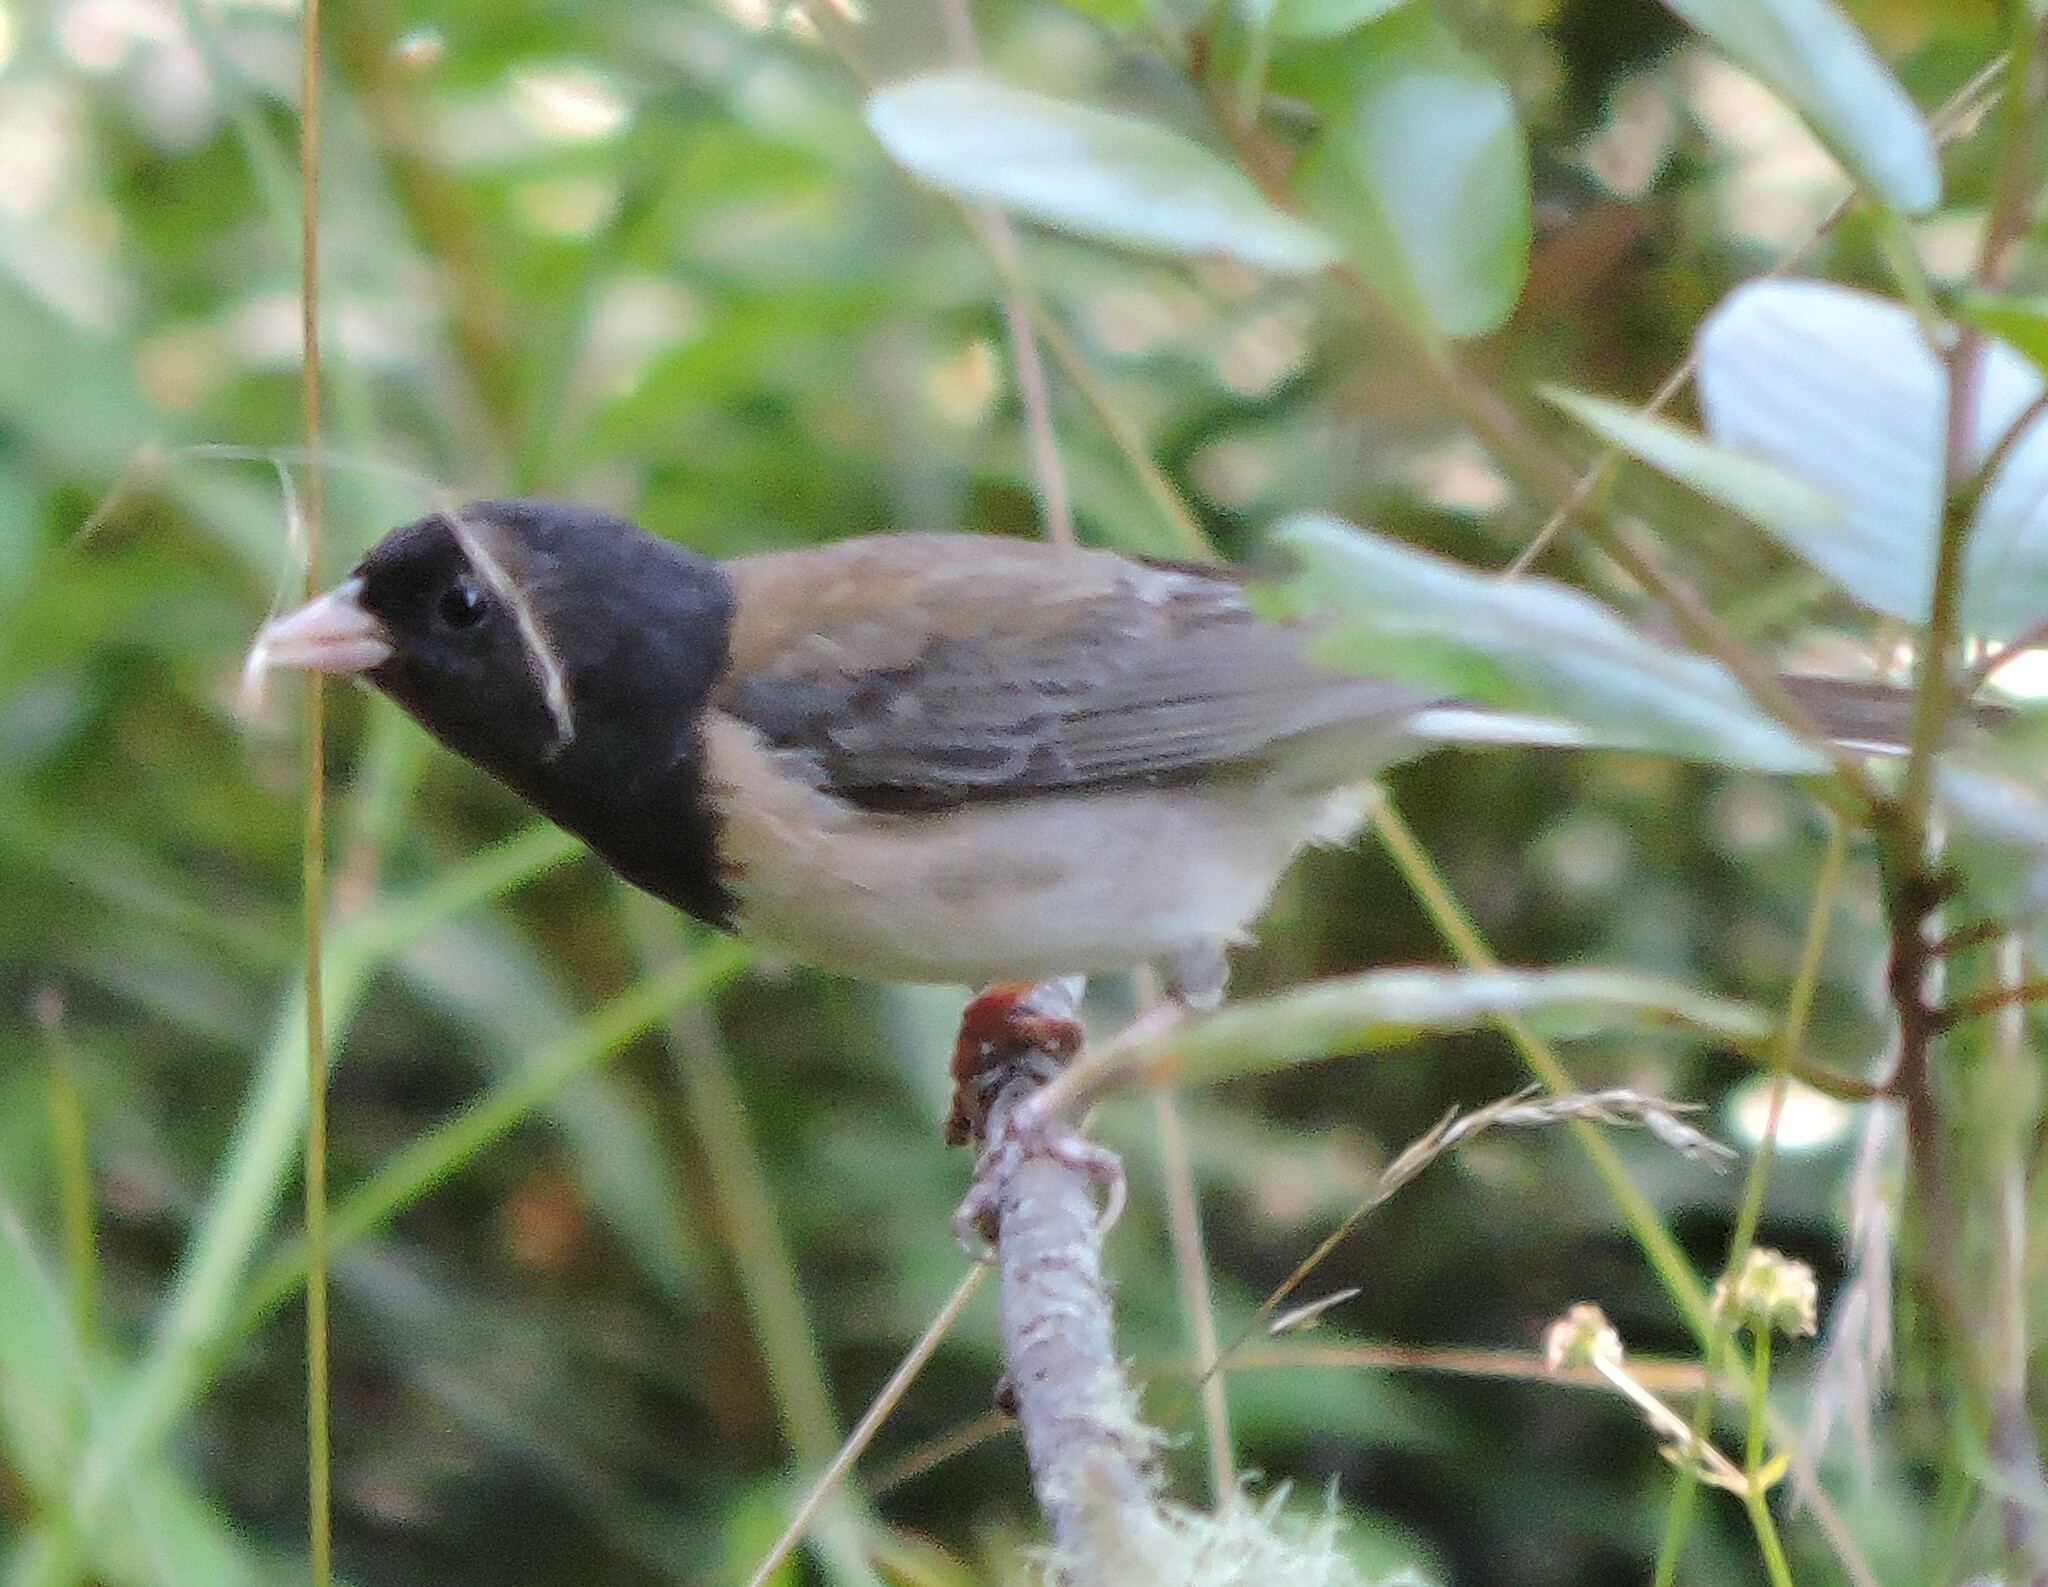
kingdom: Animalia
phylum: Chordata
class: Aves
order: Passeriformes
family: Passerellidae
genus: Junco
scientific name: Junco hyemalis
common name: Dark-eyed junco
